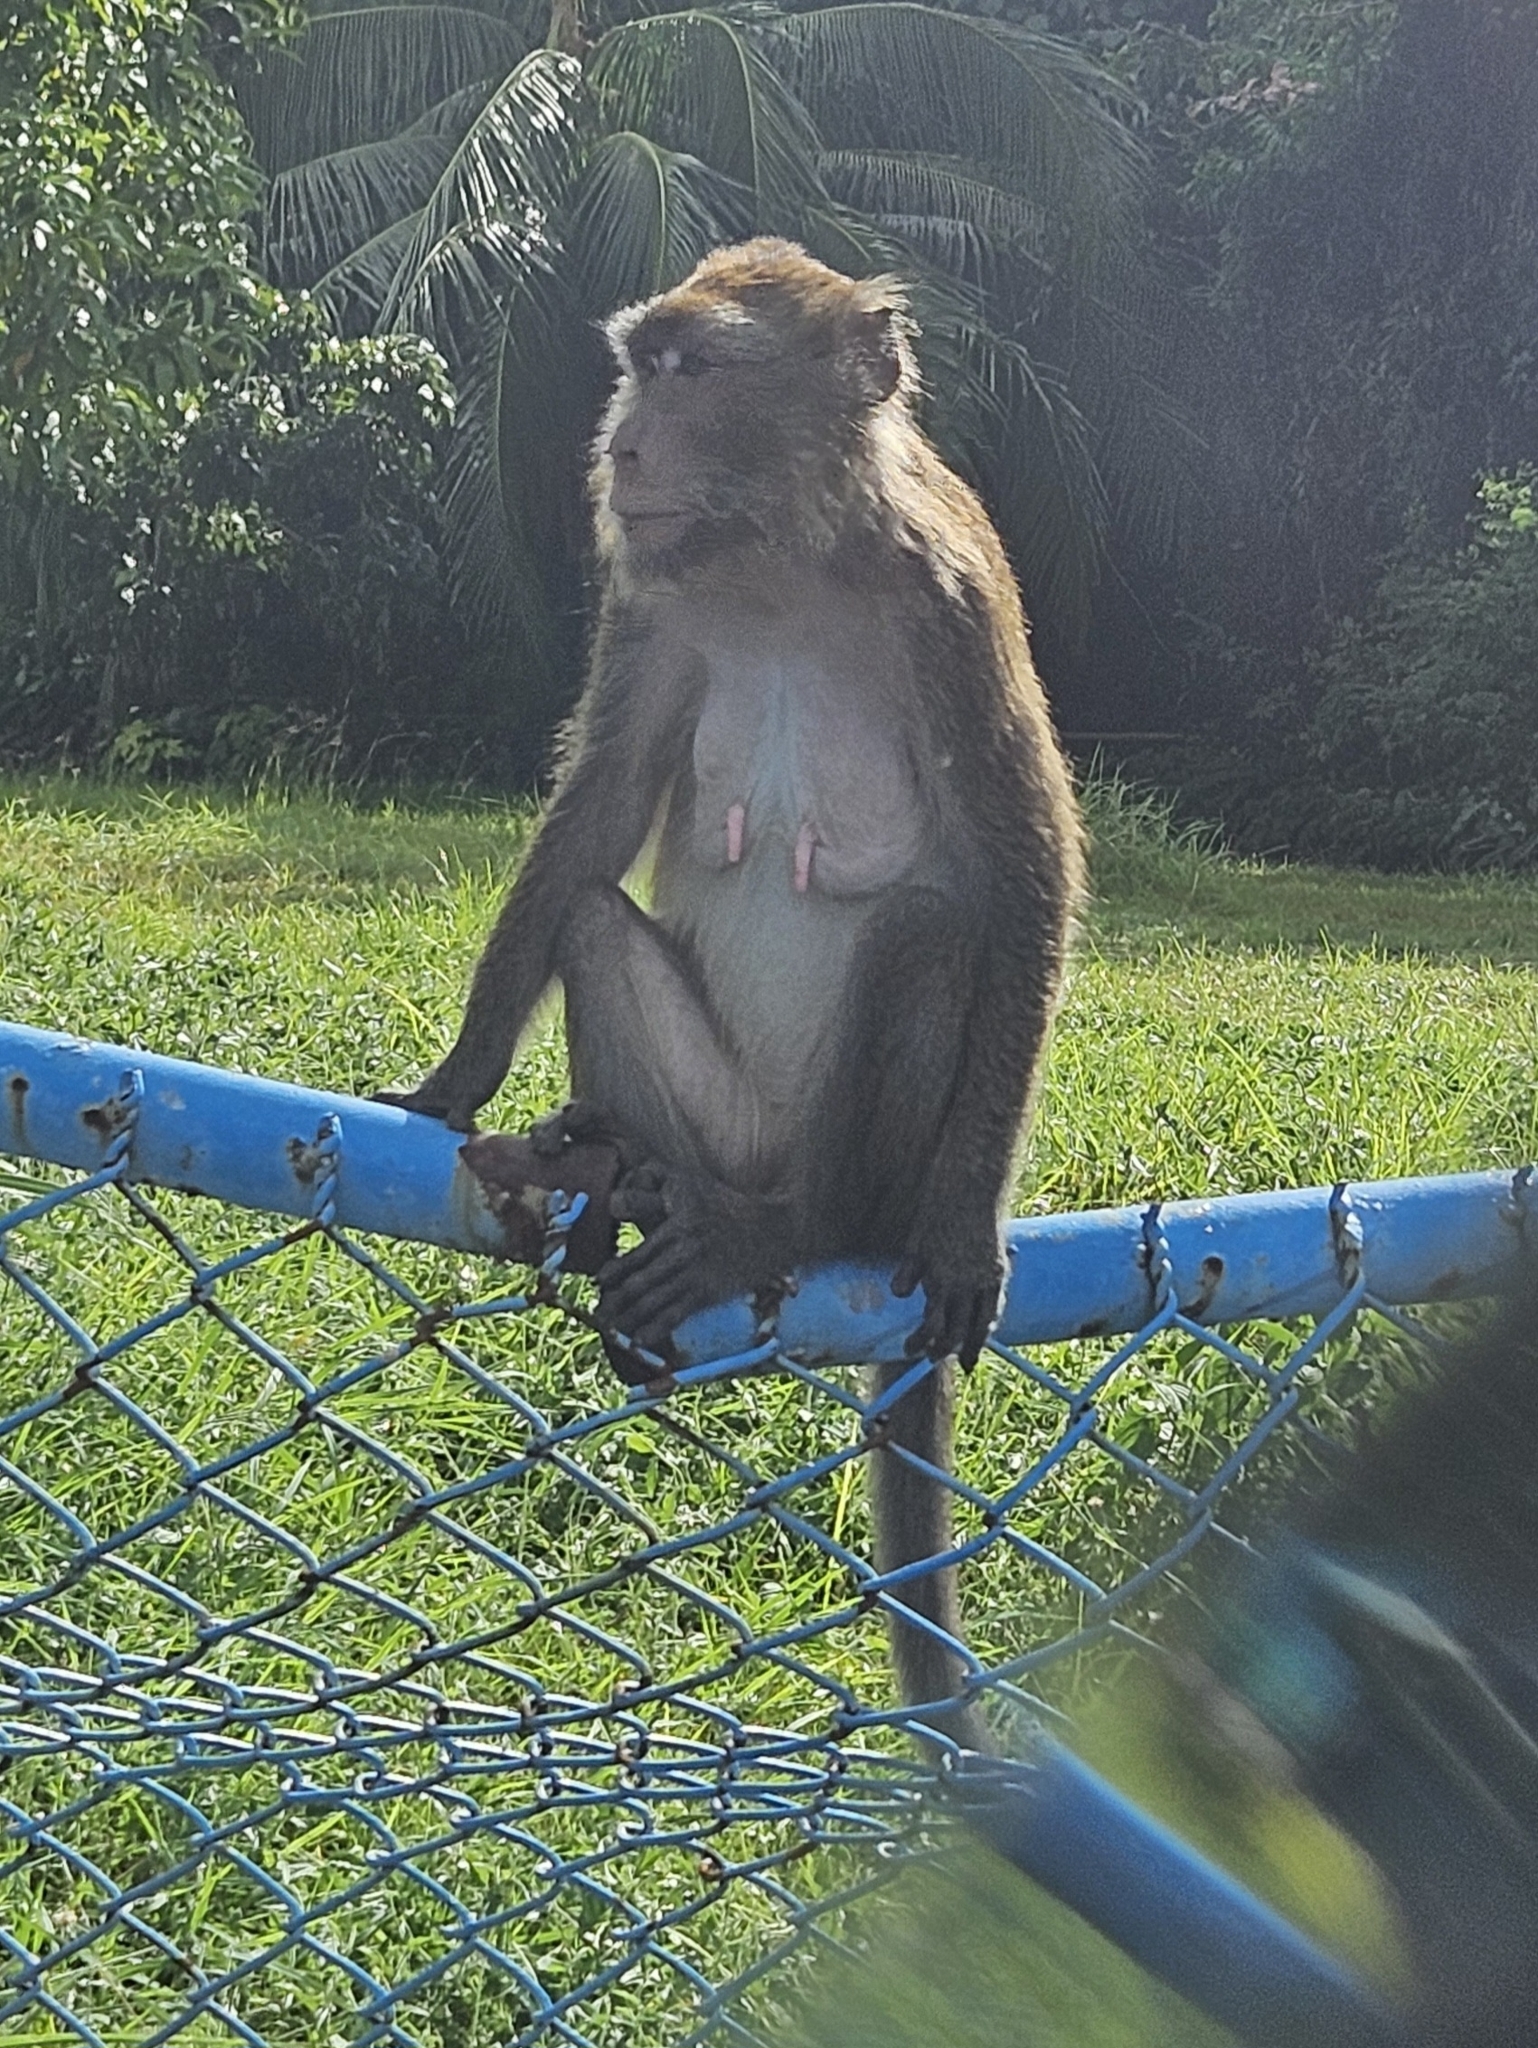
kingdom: Animalia
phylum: Chordata
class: Mammalia
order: Primates
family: Cercopithecidae
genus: Macaca
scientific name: Macaca fascicularis
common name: Crab-eating macaque
